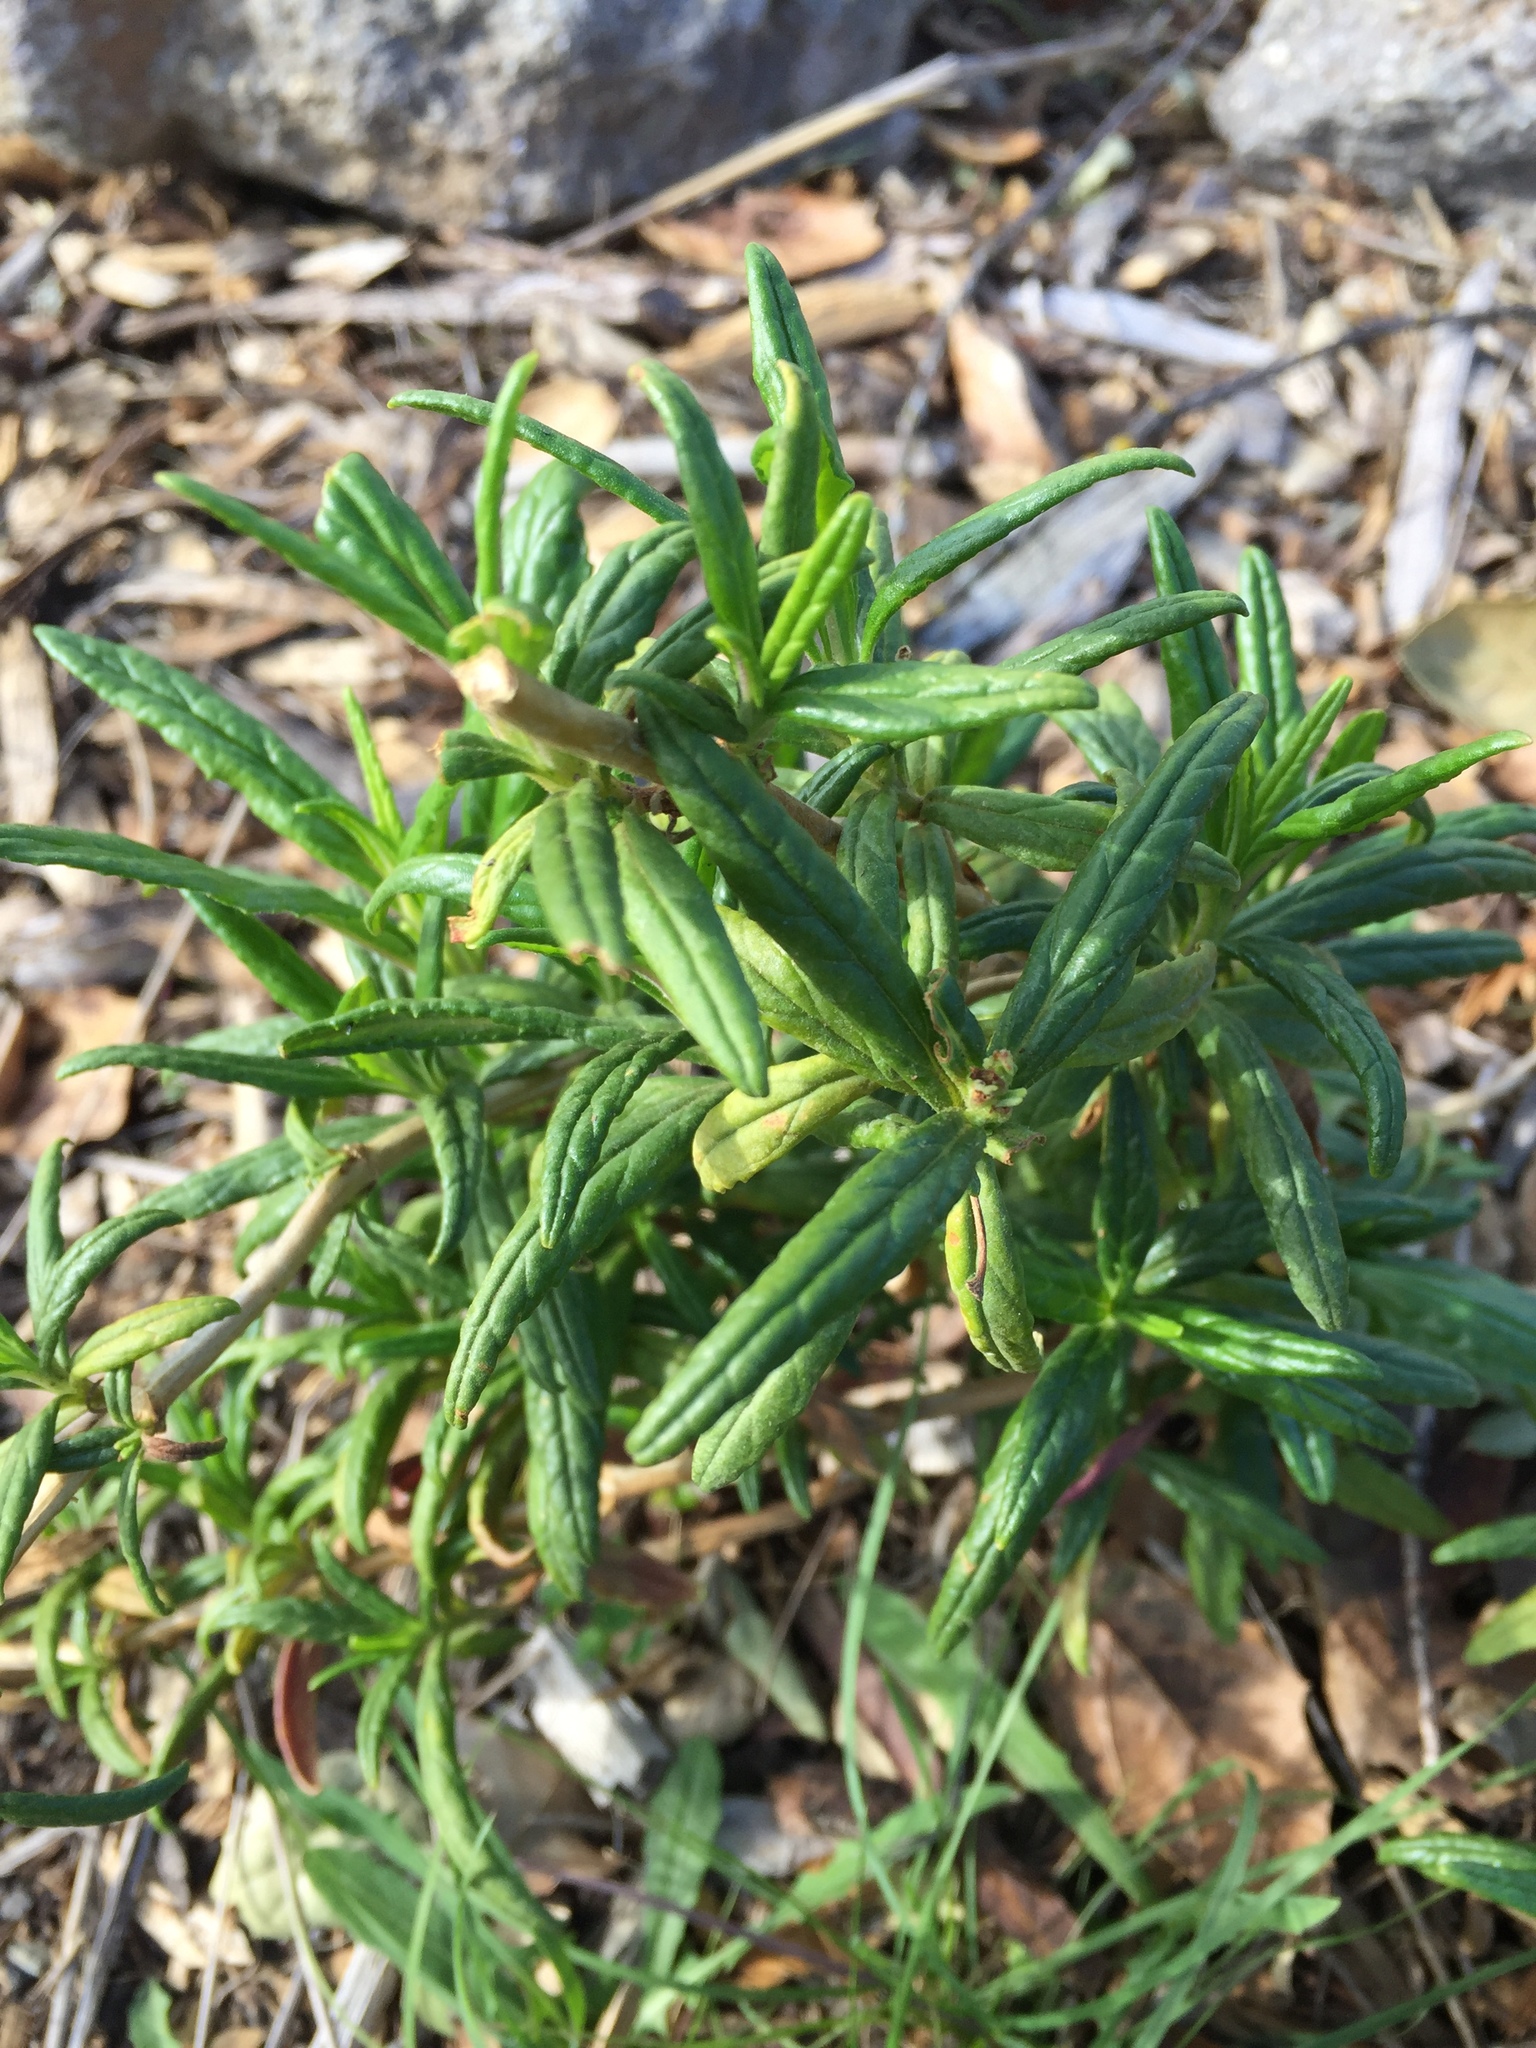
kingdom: Plantae
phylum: Tracheophyta
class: Magnoliopsida
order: Lamiales
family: Phrymaceae
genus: Diplacus
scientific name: Diplacus aurantiacus
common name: Bush monkey-flower
